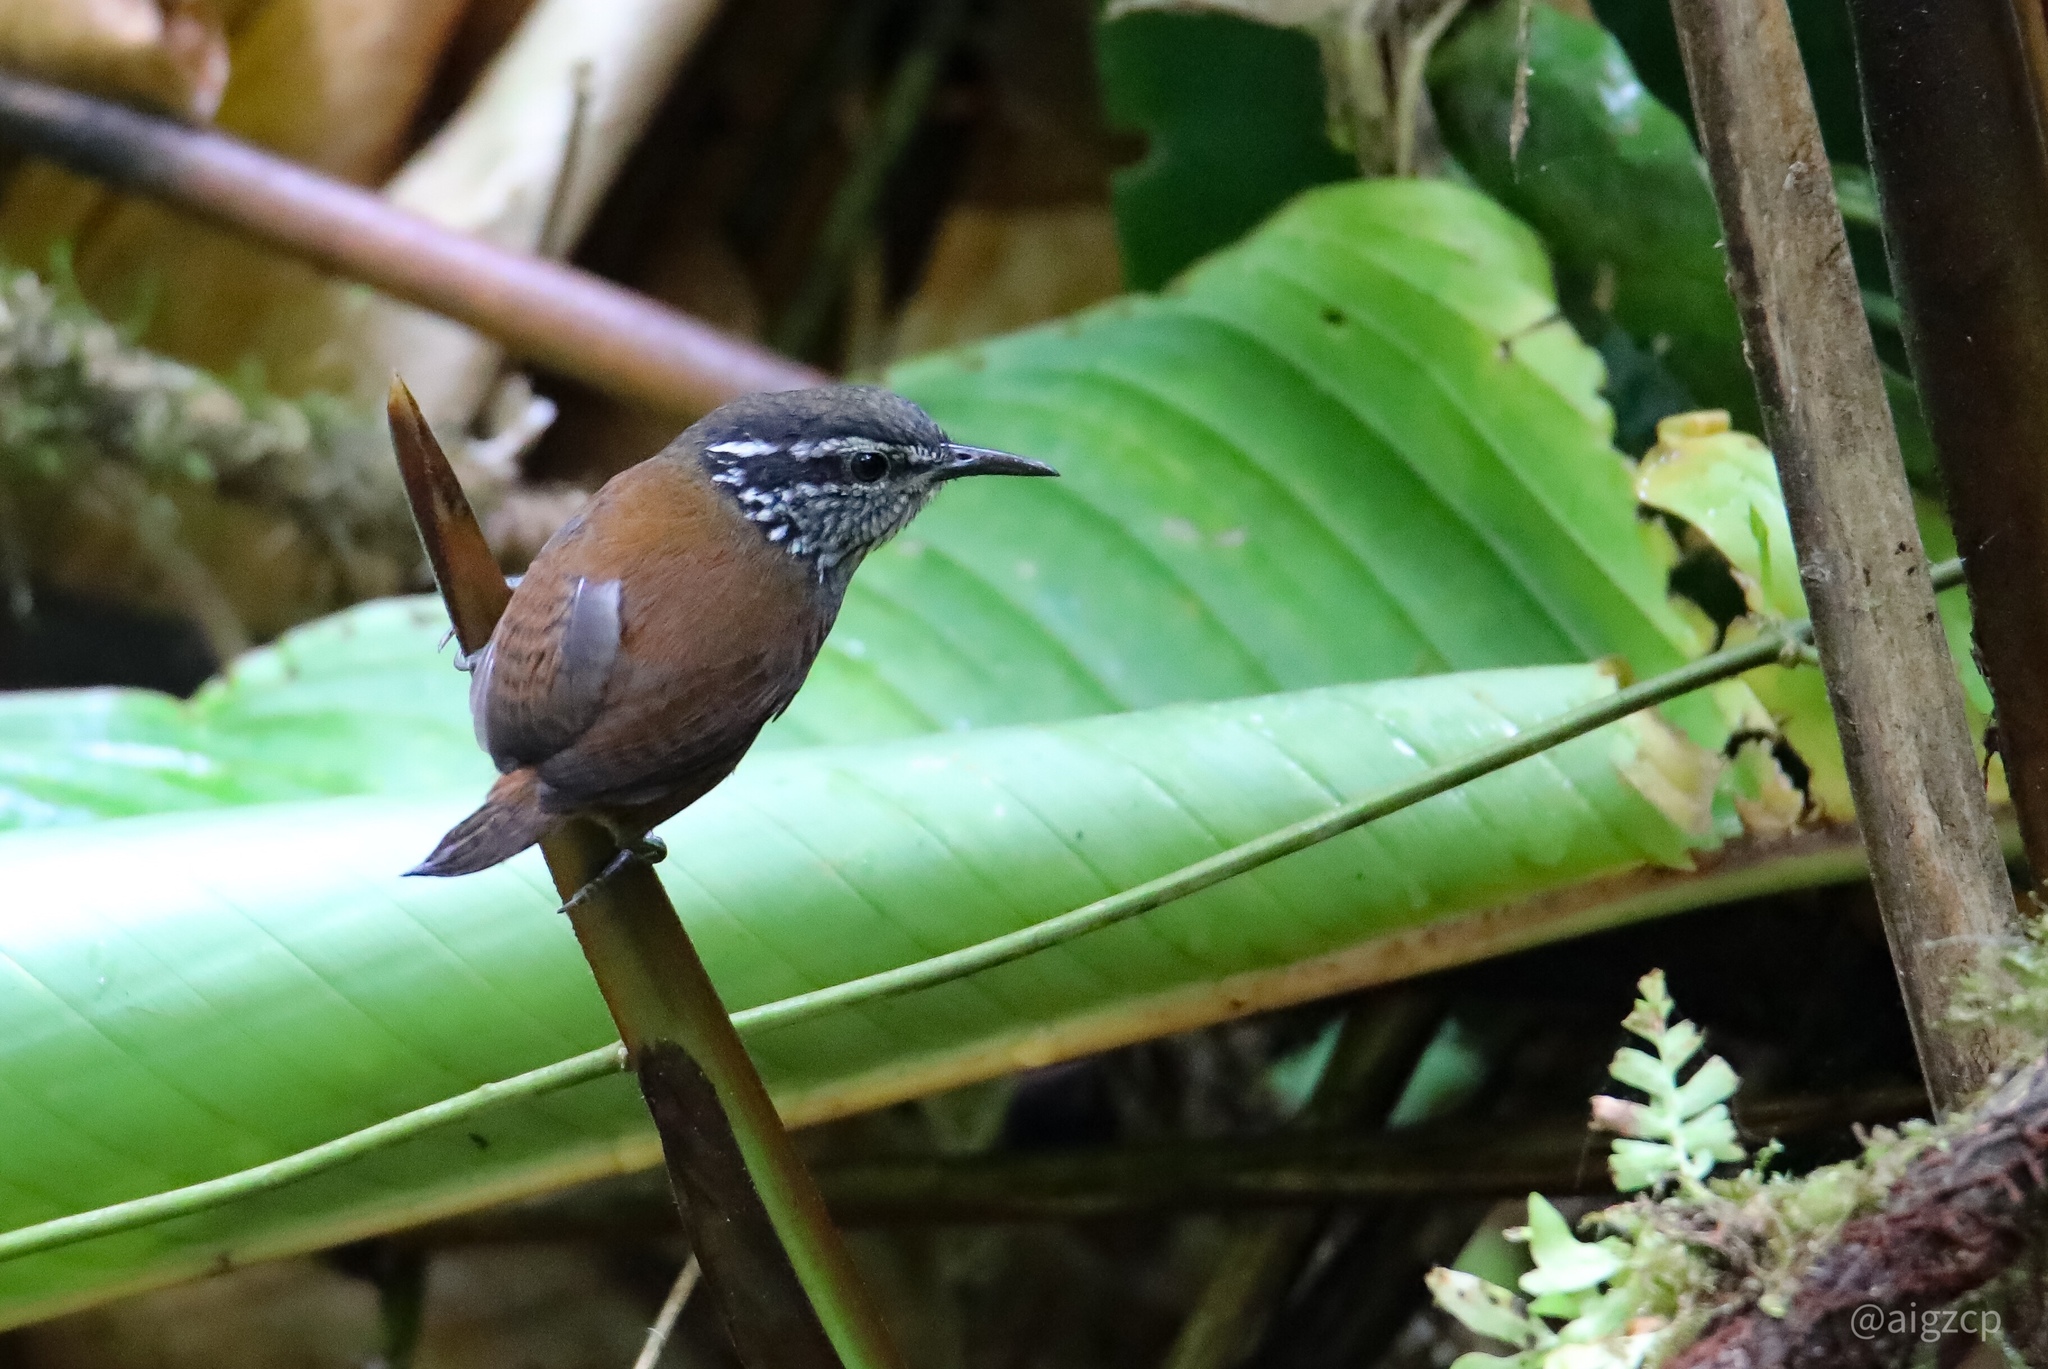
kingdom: Animalia
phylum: Chordata
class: Aves
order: Passeriformes
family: Troglodytidae
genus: Henicorhina
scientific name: Henicorhina leucosticta
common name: White-breasted wood-wren
